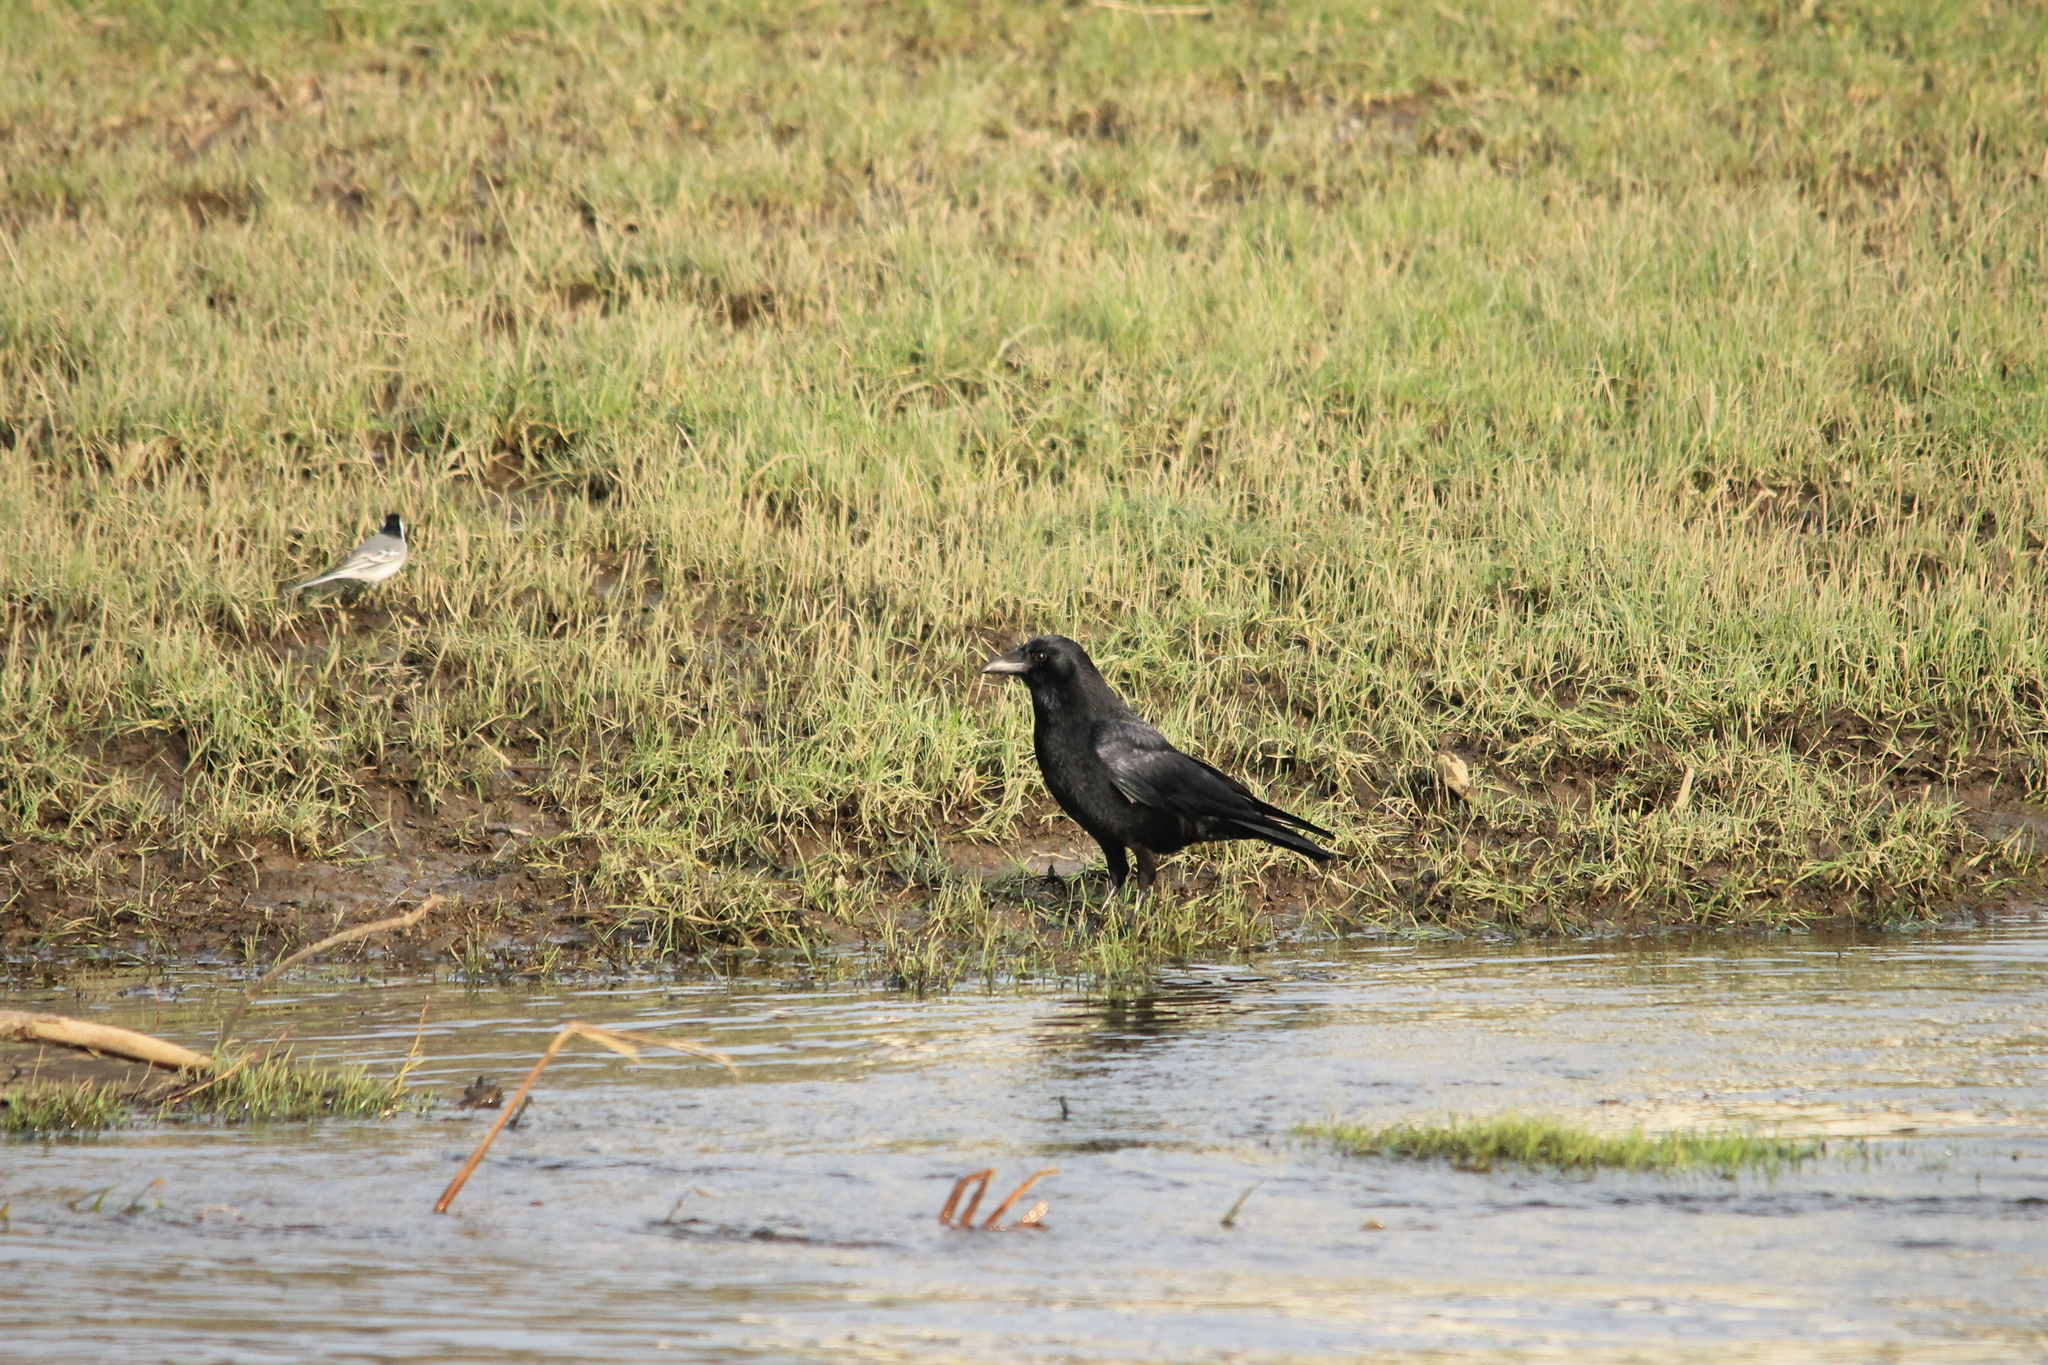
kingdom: Animalia
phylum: Chordata
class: Aves
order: Passeriformes
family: Motacillidae
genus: Motacilla
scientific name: Motacilla alba
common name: White wagtail
